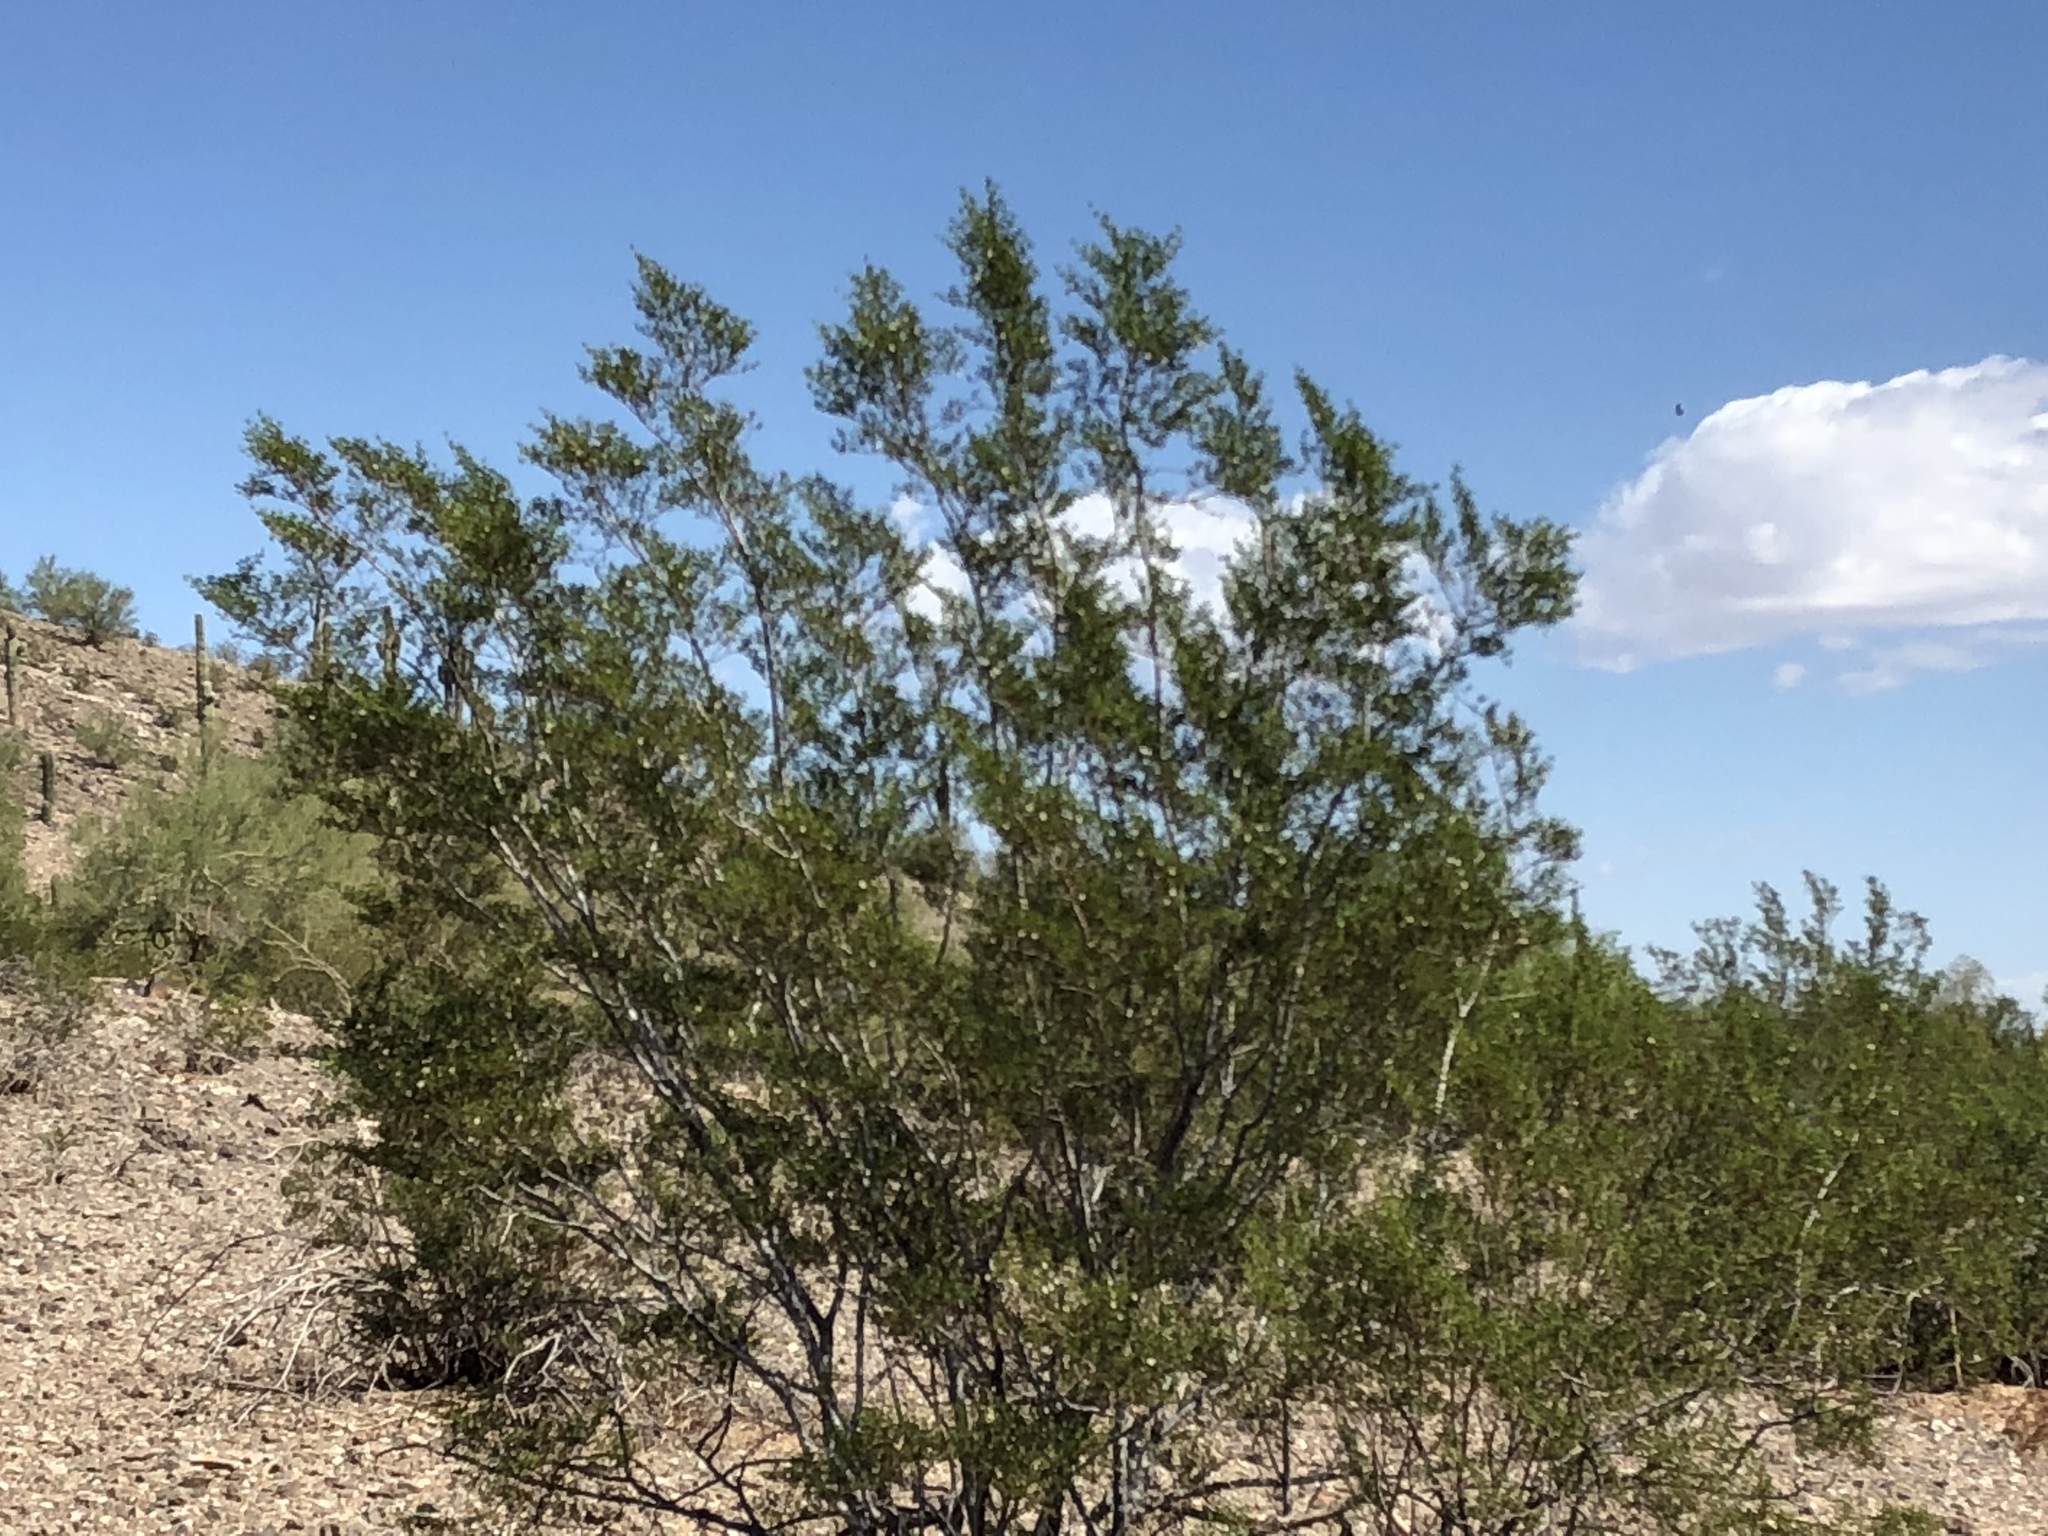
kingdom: Plantae
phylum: Tracheophyta
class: Magnoliopsida
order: Zygophyllales
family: Zygophyllaceae
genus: Larrea
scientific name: Larrea tridentata
